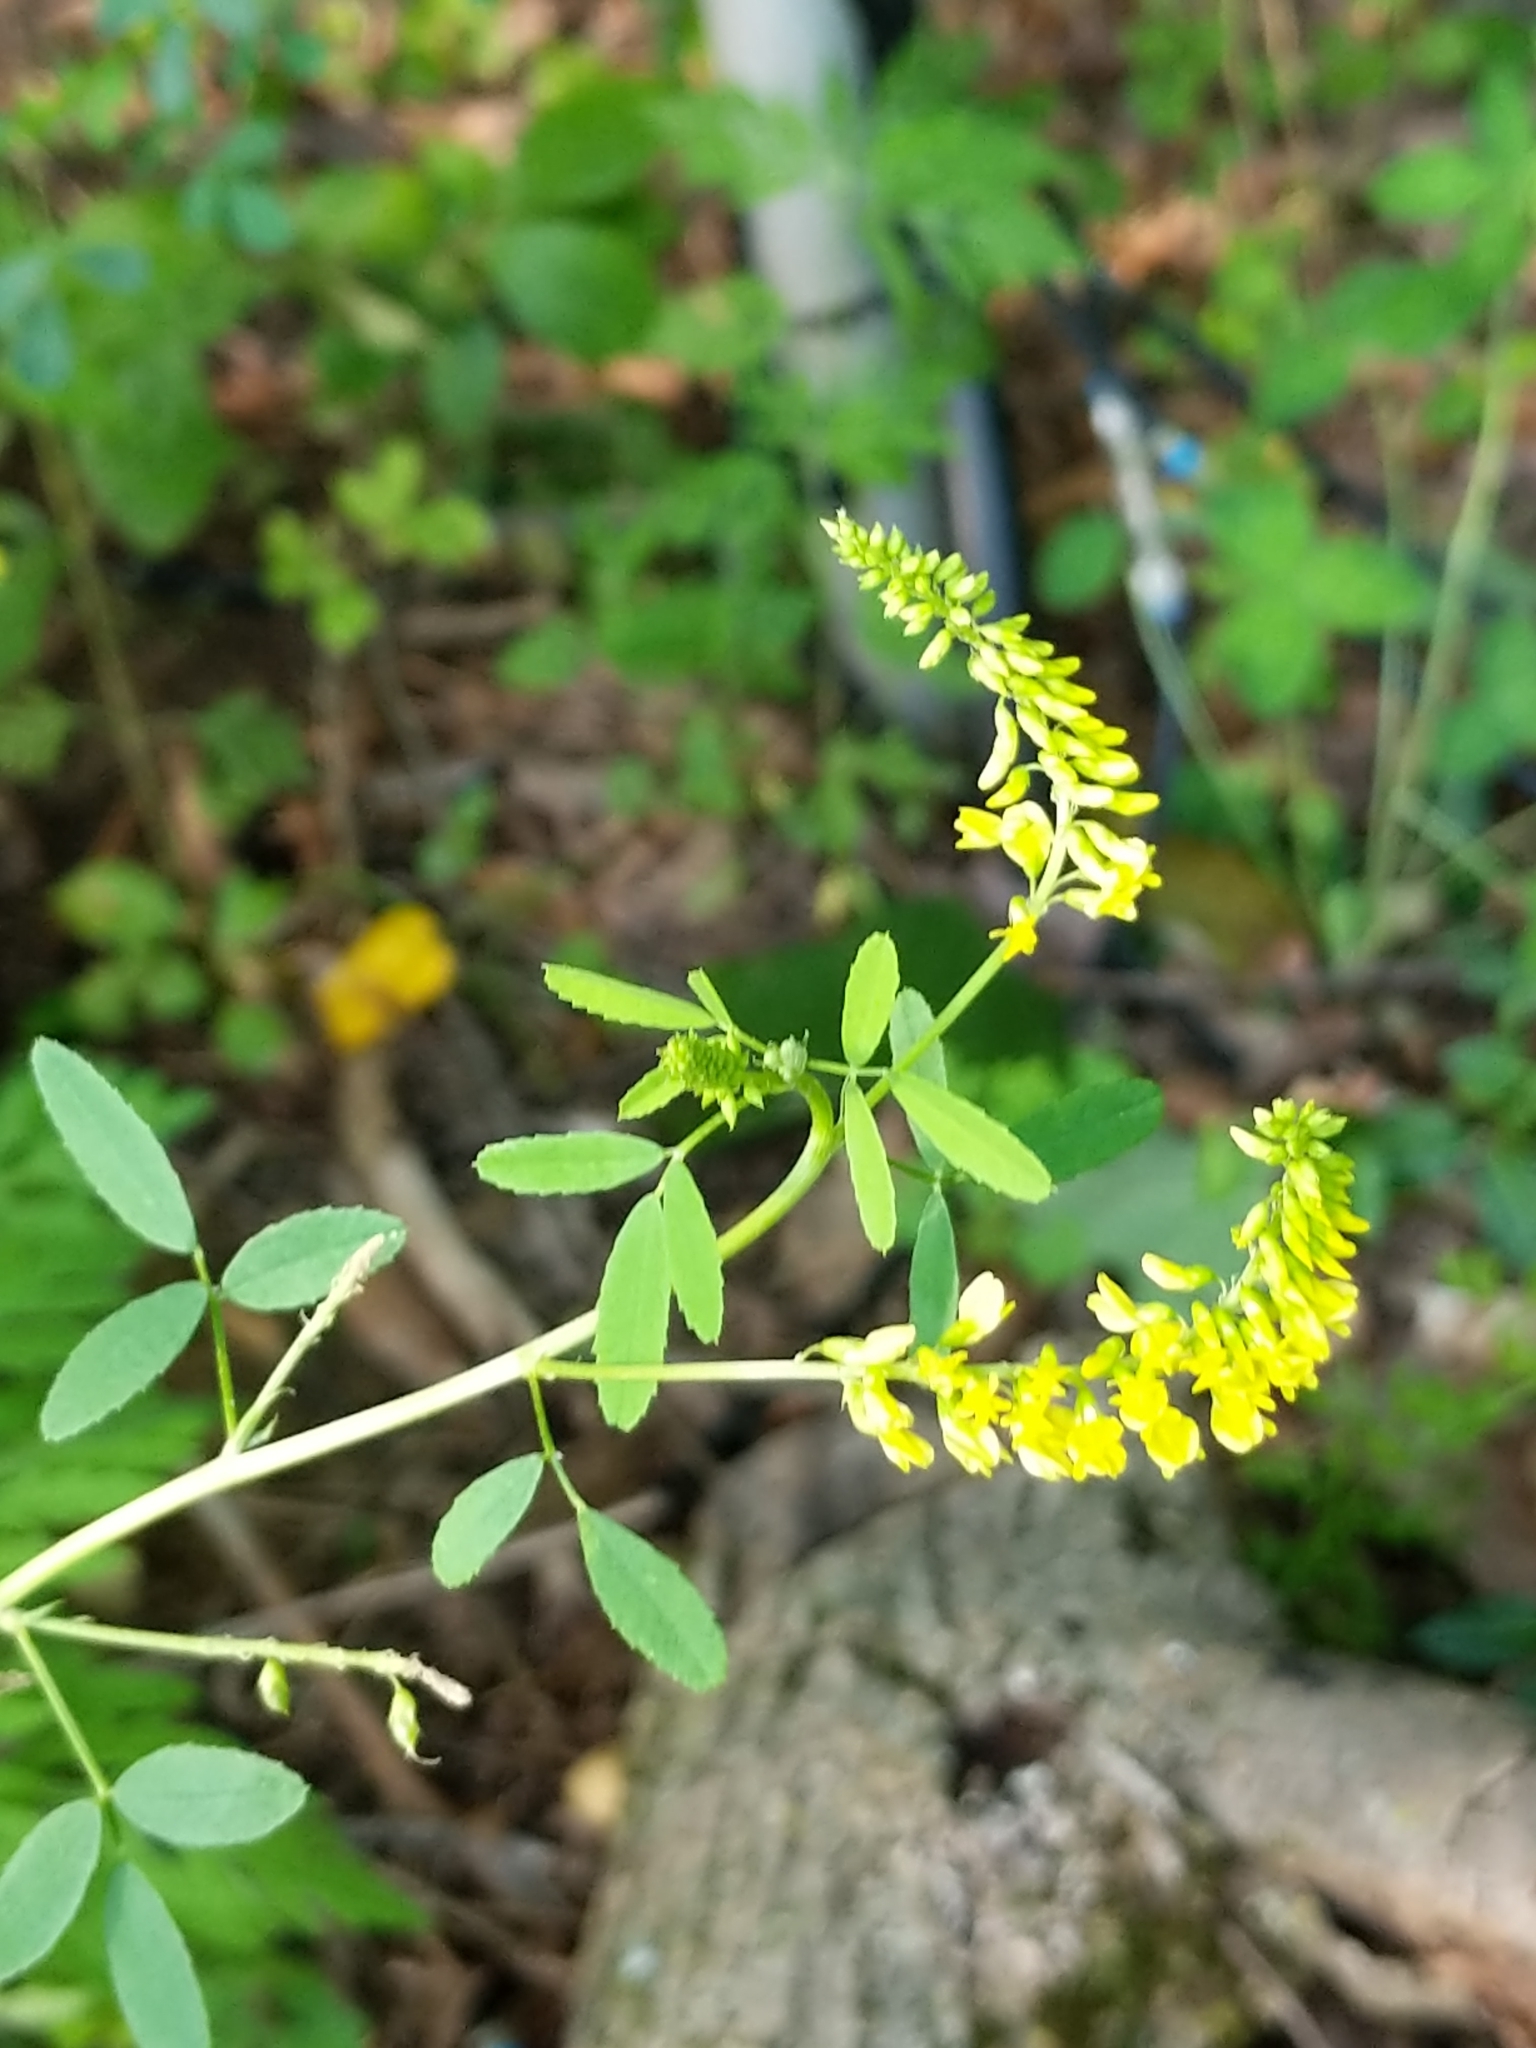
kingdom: Plantae
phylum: Tracheophyta
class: Magnoliopsida
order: Fabales
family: Fabaceae
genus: Melilotus
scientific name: Melilotus officinalis
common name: Sweetclover
